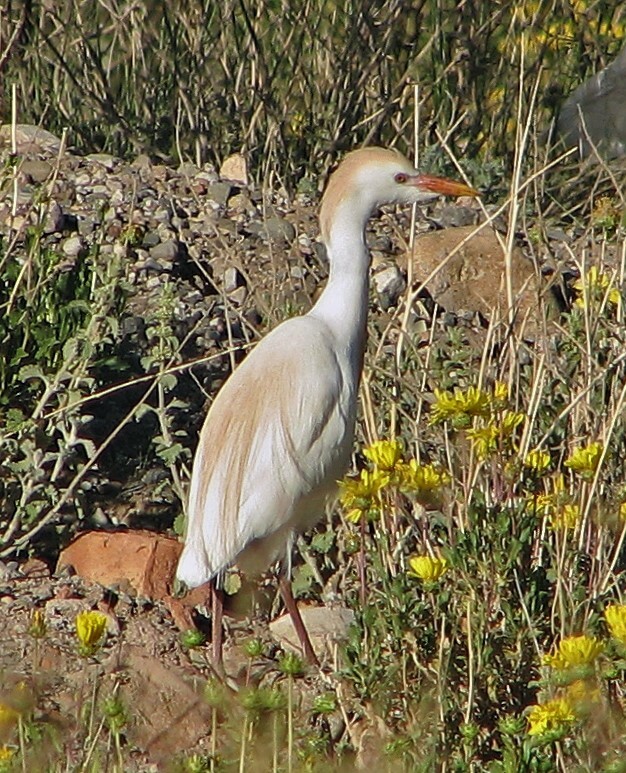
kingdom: Animalia
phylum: Chordata
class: Aves
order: Pelecaniformes
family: Ardeidae
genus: Bubulcus
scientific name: Bubulcus ibis
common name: Cattle egret
